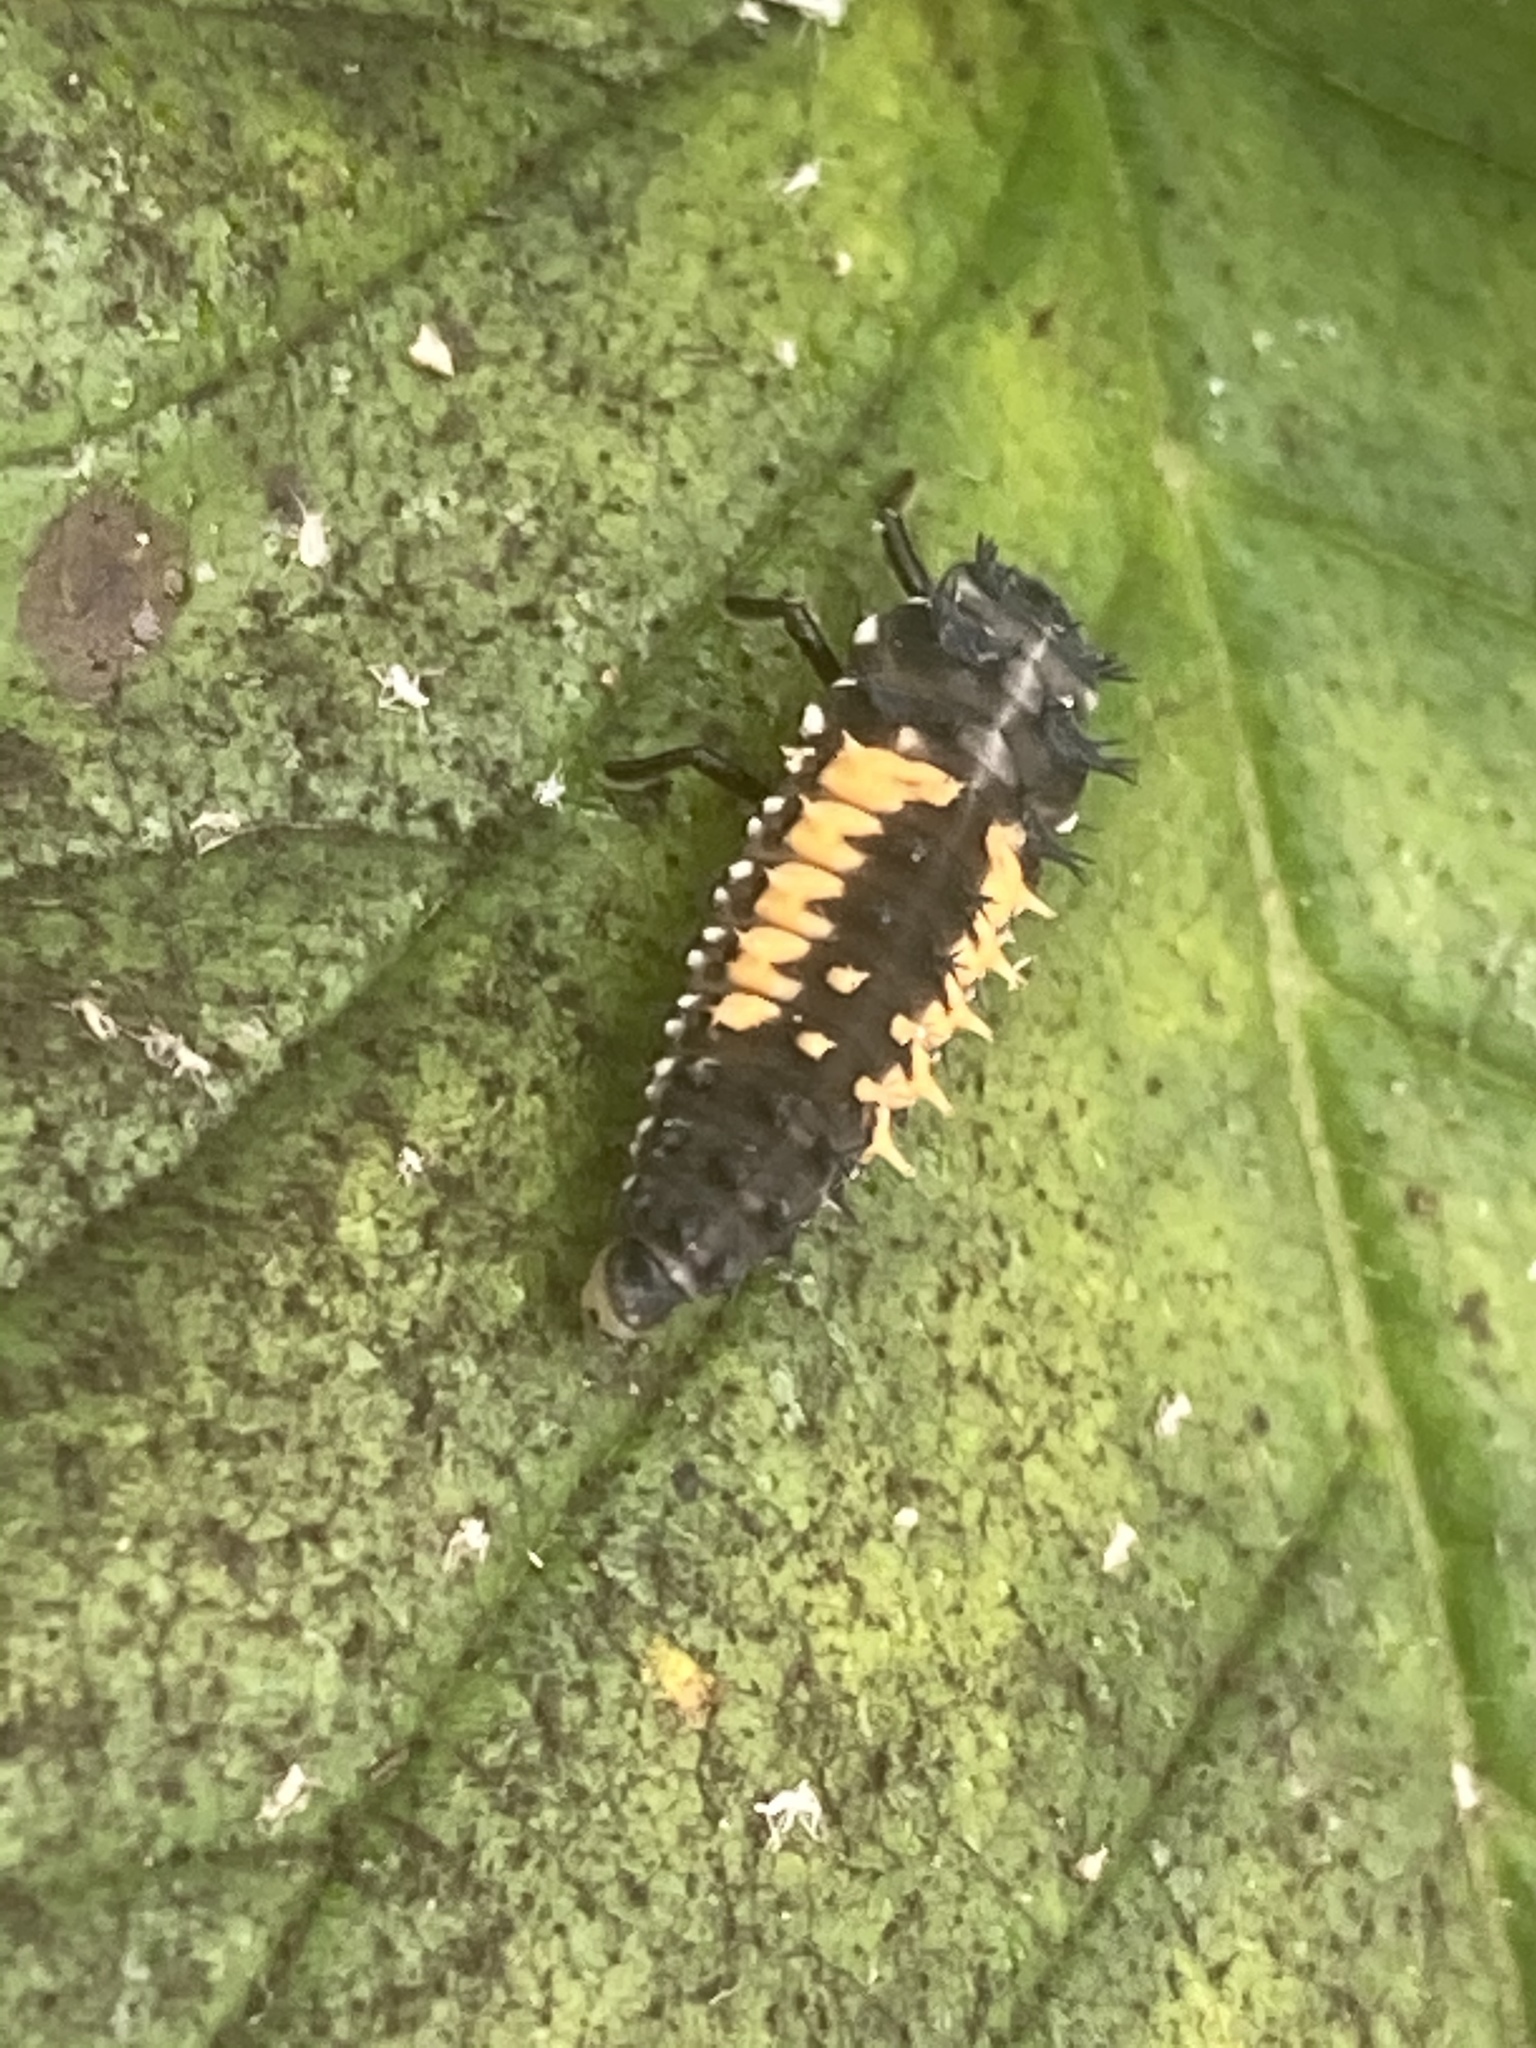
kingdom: Animalia
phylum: Arthropoda
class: Insecta
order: Coleoptera
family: Coccinellidae
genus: Harmonia
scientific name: Harmonia axyridis
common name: Harlequin ladybird
